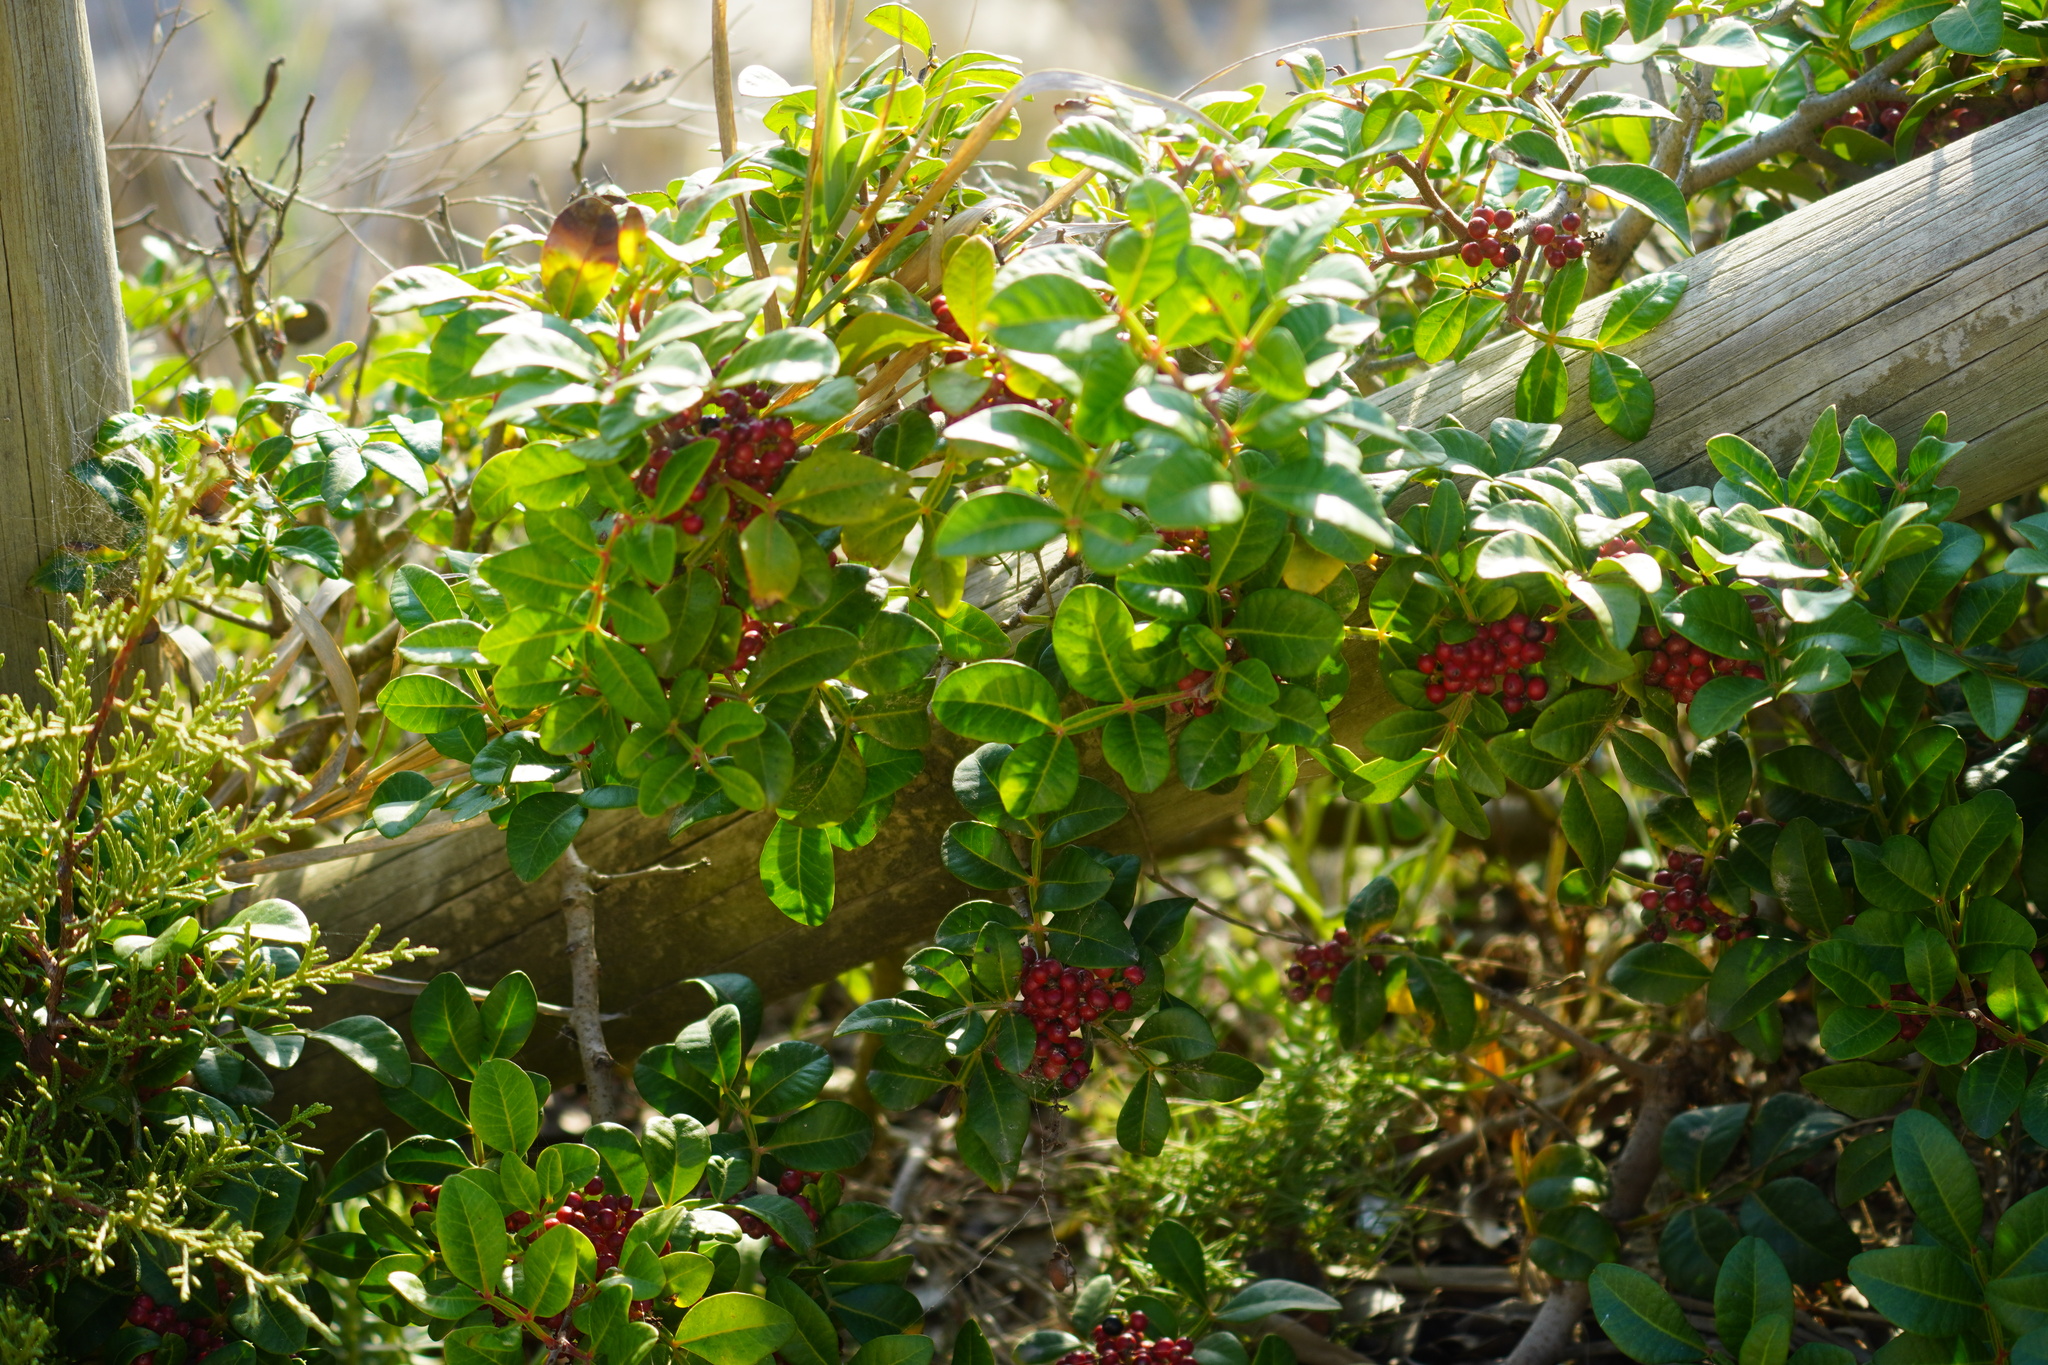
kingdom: Plantae
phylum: Tracheophyta
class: Magnoliopsida
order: Sapindales
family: Anacardiaceae
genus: Pistacia
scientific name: Pistacia lentiscus
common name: Lentisk
